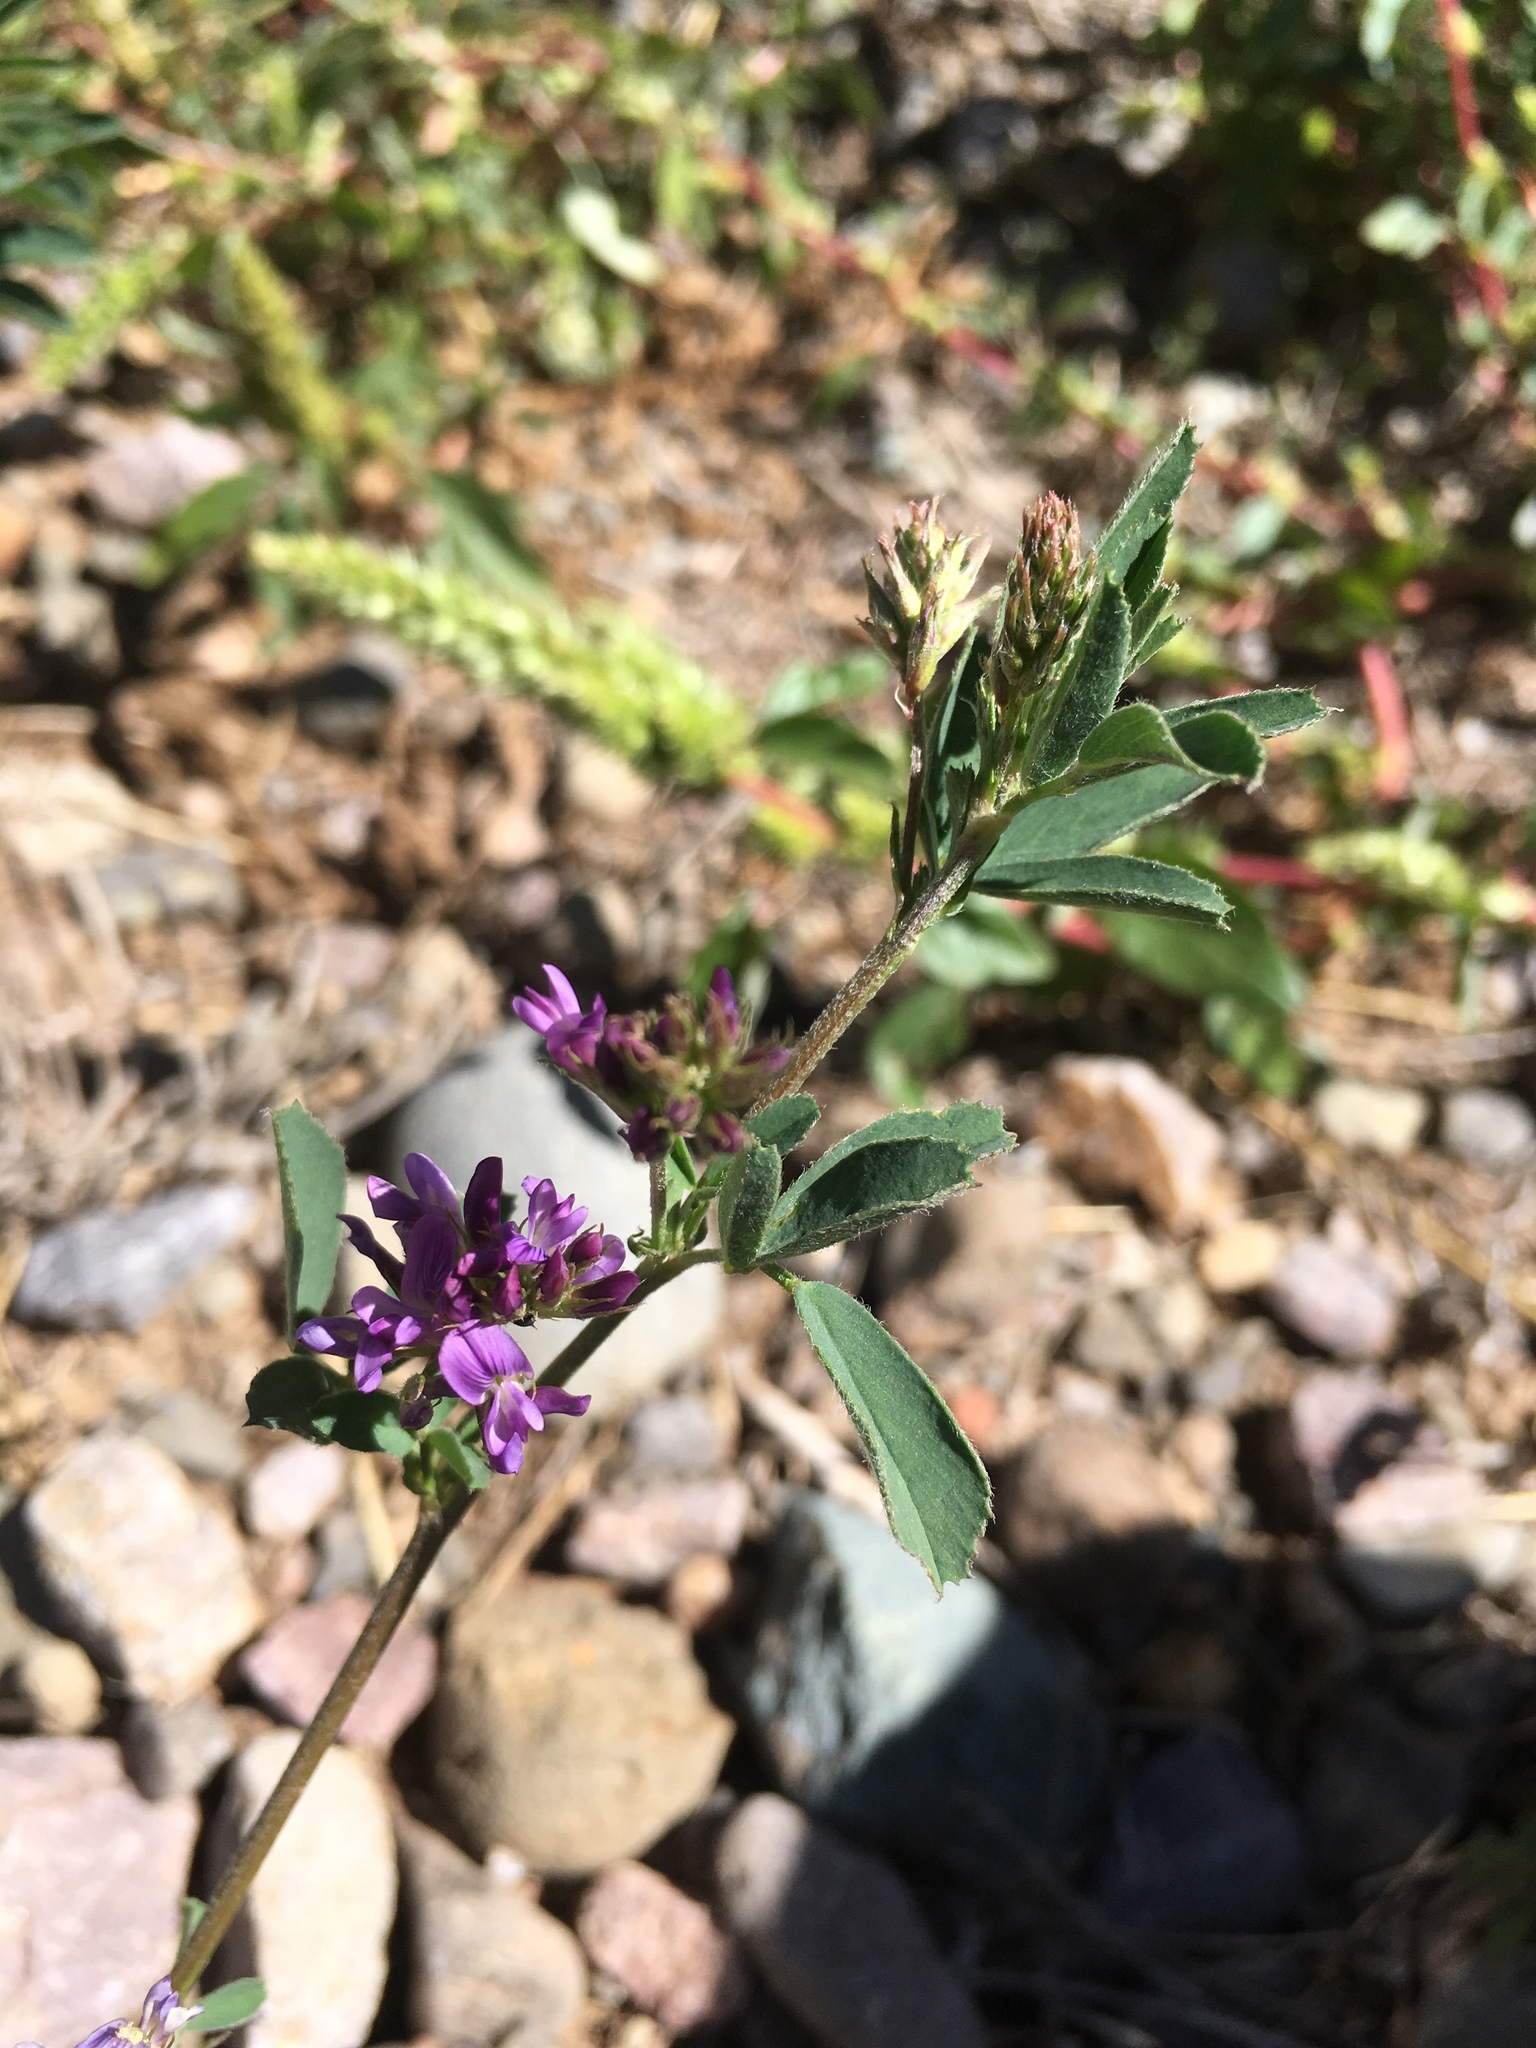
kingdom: Plantae
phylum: Tracheophyta
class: Magnoliopsida
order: Fabales
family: Fabaceae
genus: Medicago
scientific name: Medicago sativa
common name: Alfalfa
